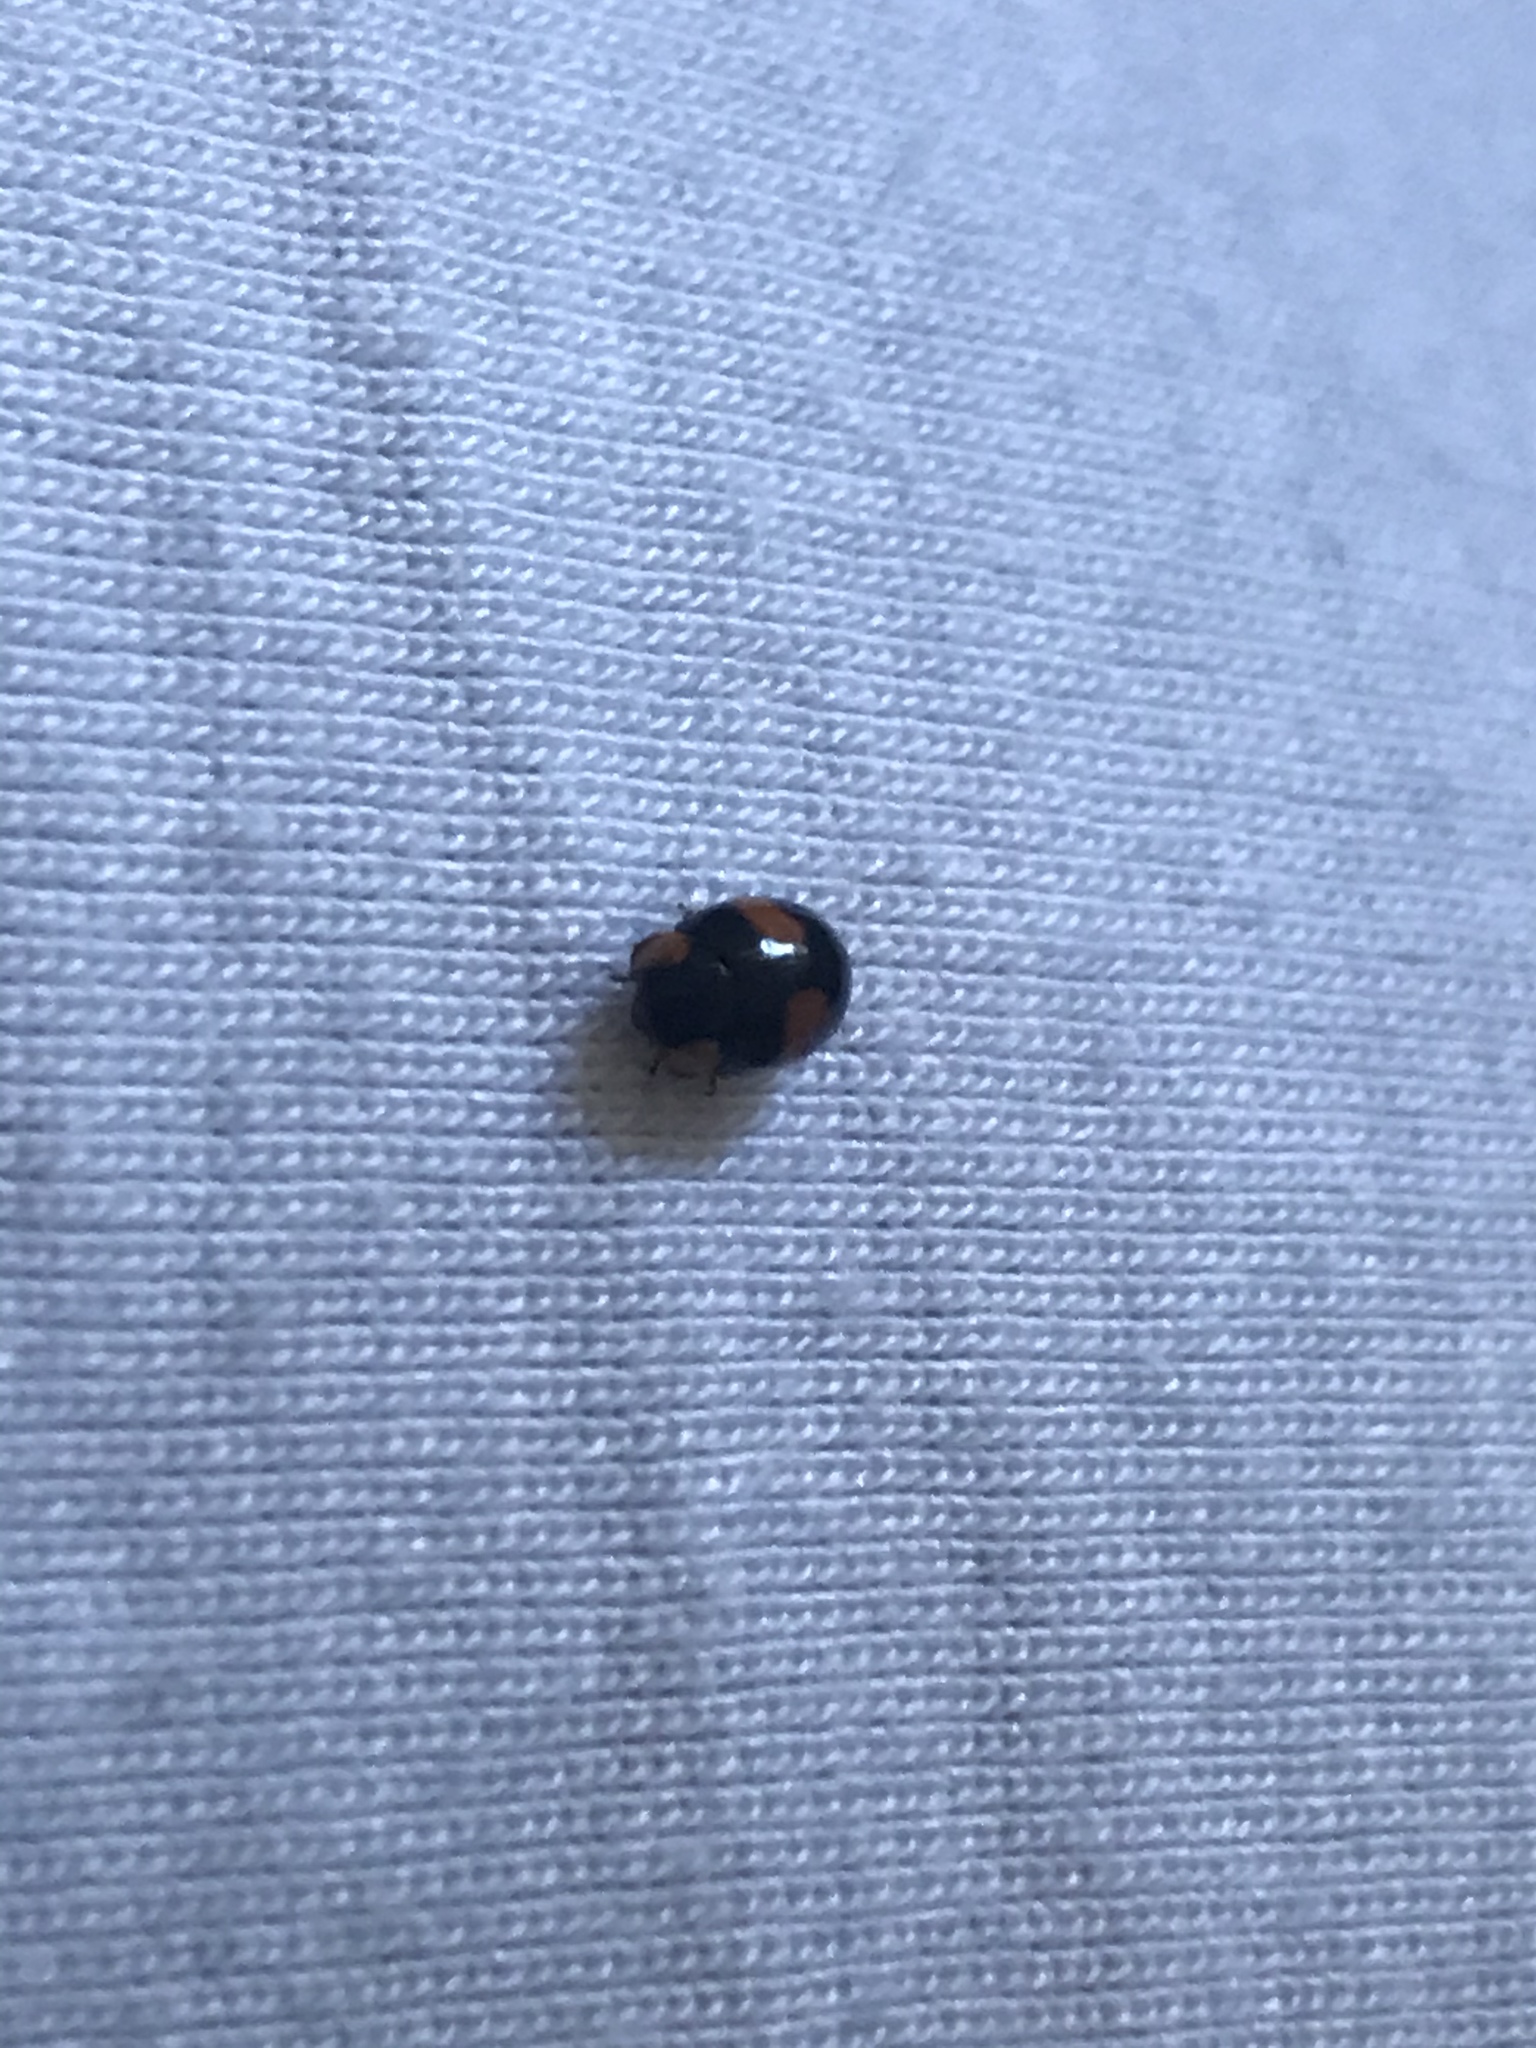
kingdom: Animalia
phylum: Arthropoda
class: Insecta
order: Coleoptera
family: Coccinellidae
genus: Brachiacantha
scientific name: Brachiacantha dentipes
